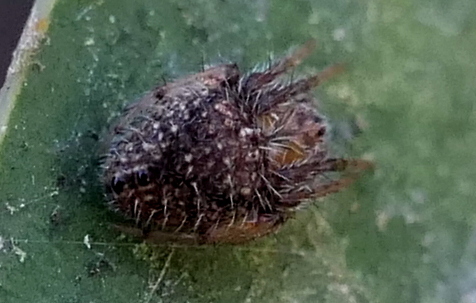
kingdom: Animalia
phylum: Arthropoda
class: Arachnida
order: Araneae
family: Araneidae
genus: Eriophora
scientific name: Eriophora edax
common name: Orb weavers
